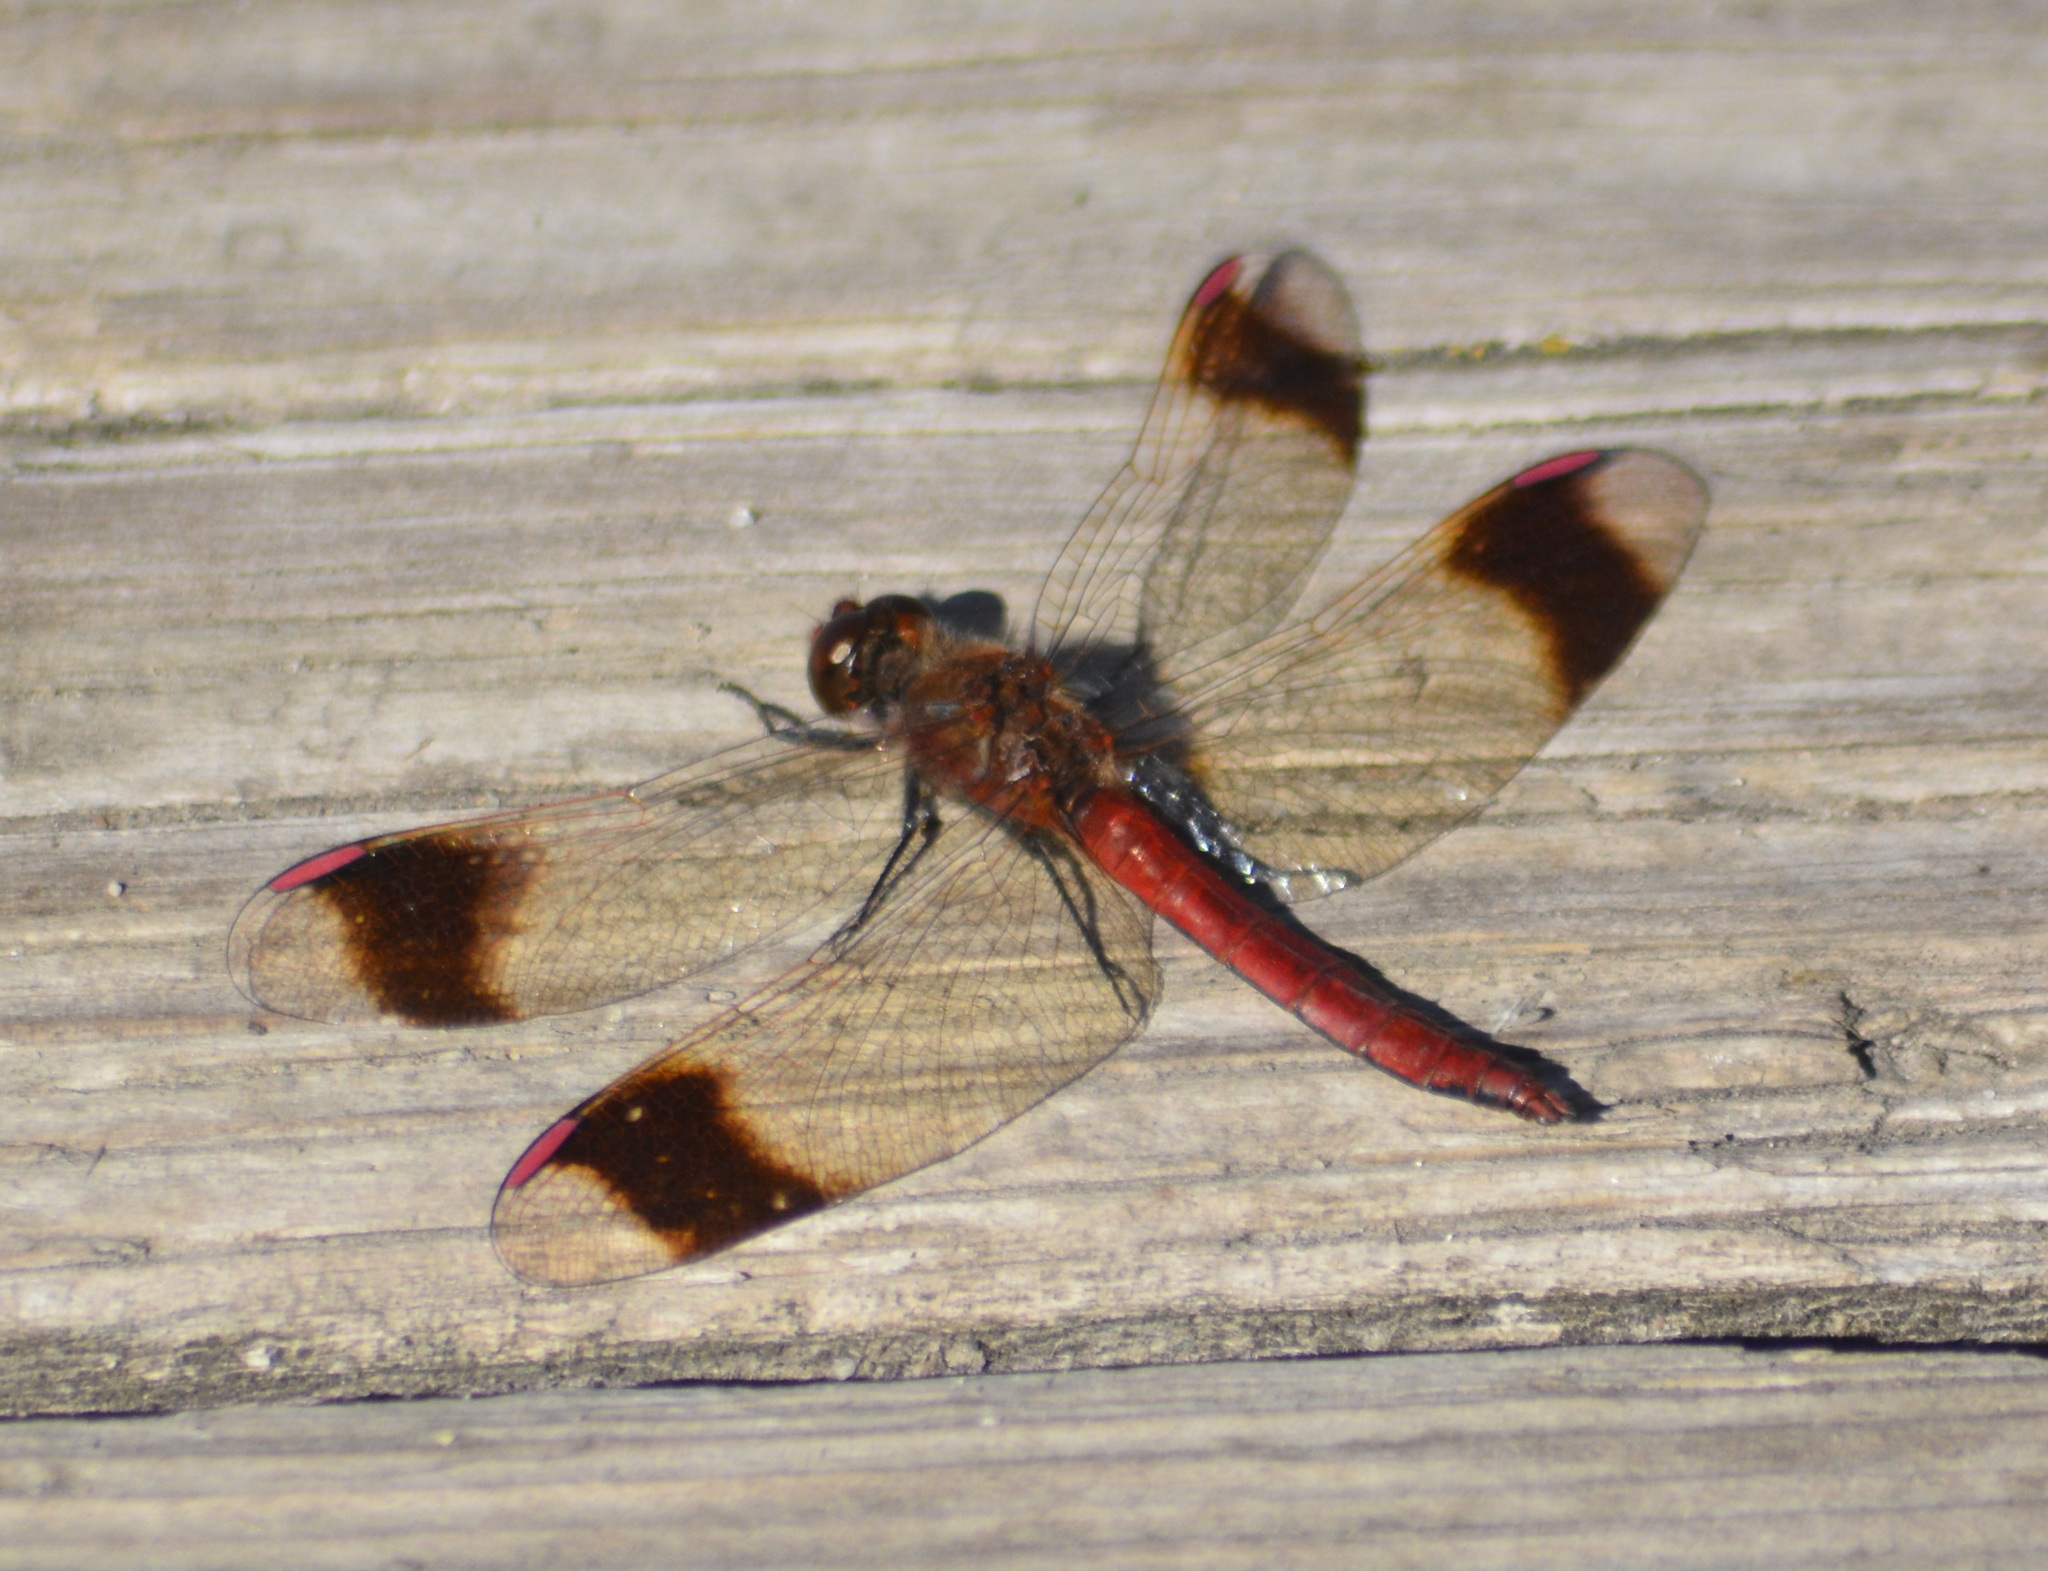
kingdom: Animalia
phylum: Arthropoda
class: Insecta
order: Odonata
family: Libellulidae
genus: Sympetrum
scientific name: Sympetrum pedemontanum
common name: Banded darter
